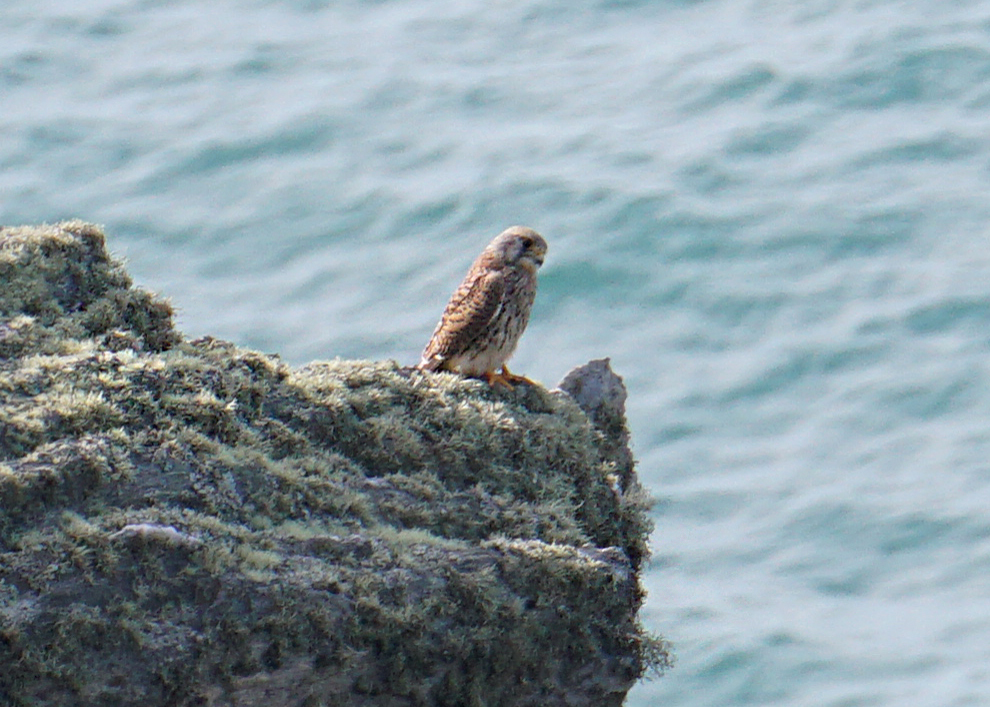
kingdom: Animalia
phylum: Chordata
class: Aves
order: Falconiformes
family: Falconidae
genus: Falco
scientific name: Falco tinnunculus
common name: Common kestrel
